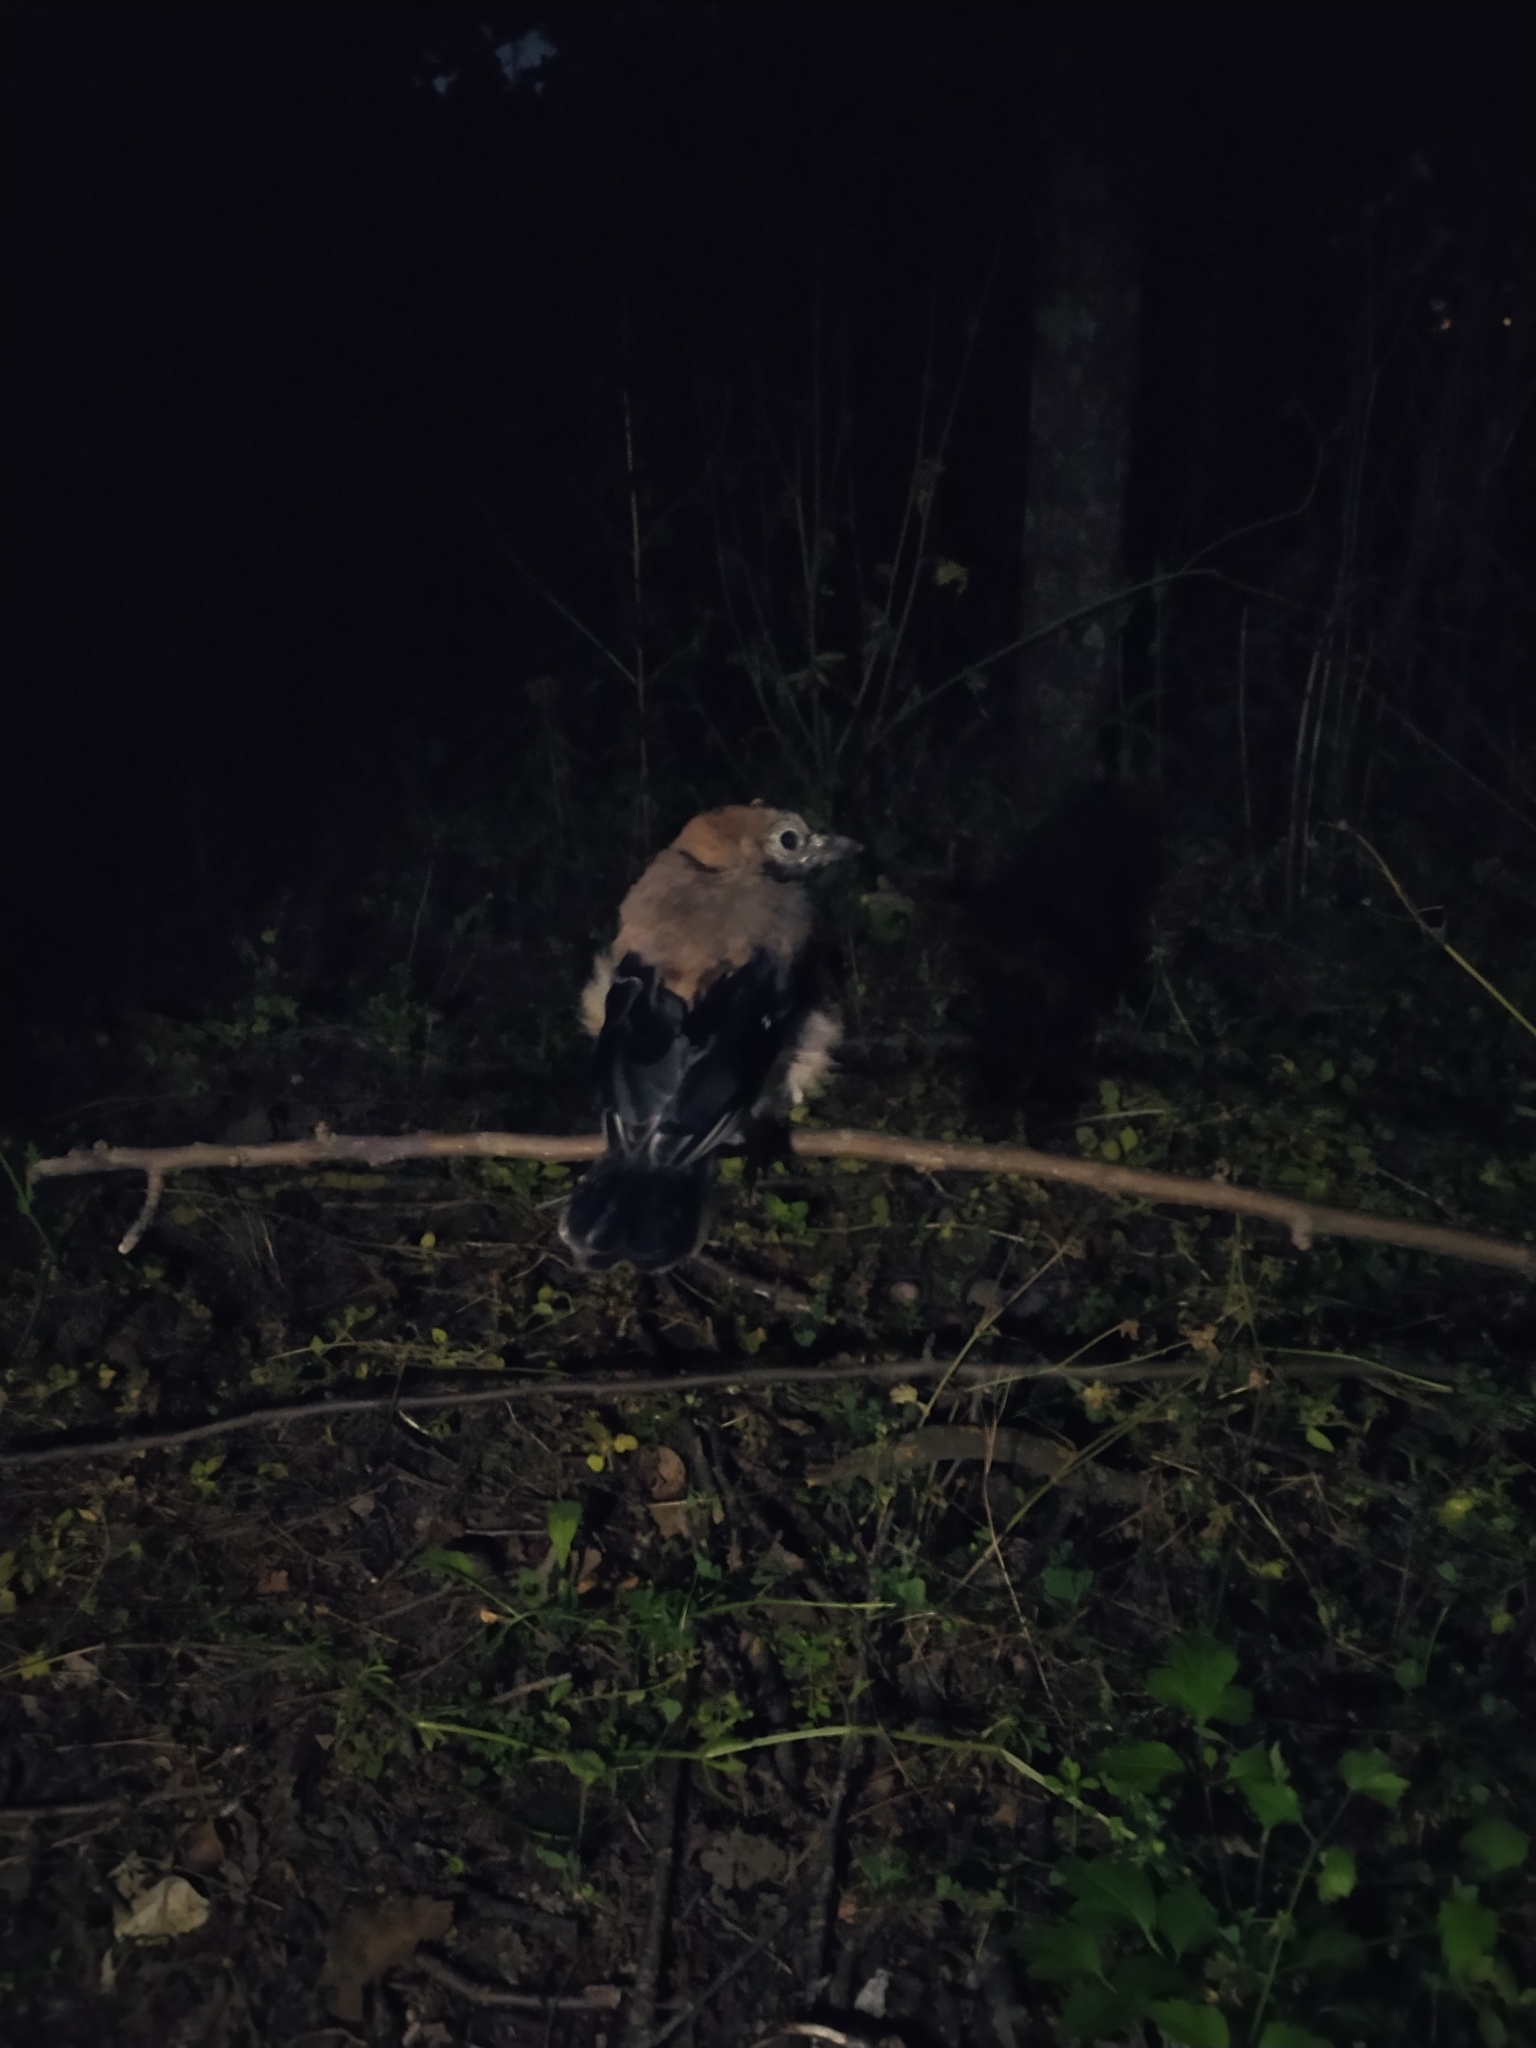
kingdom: Animalia
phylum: Chordata
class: Aves
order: Passeriformes
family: Corvidae
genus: Garrulus
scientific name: Garrulus glandarius
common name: Eurasian jay
